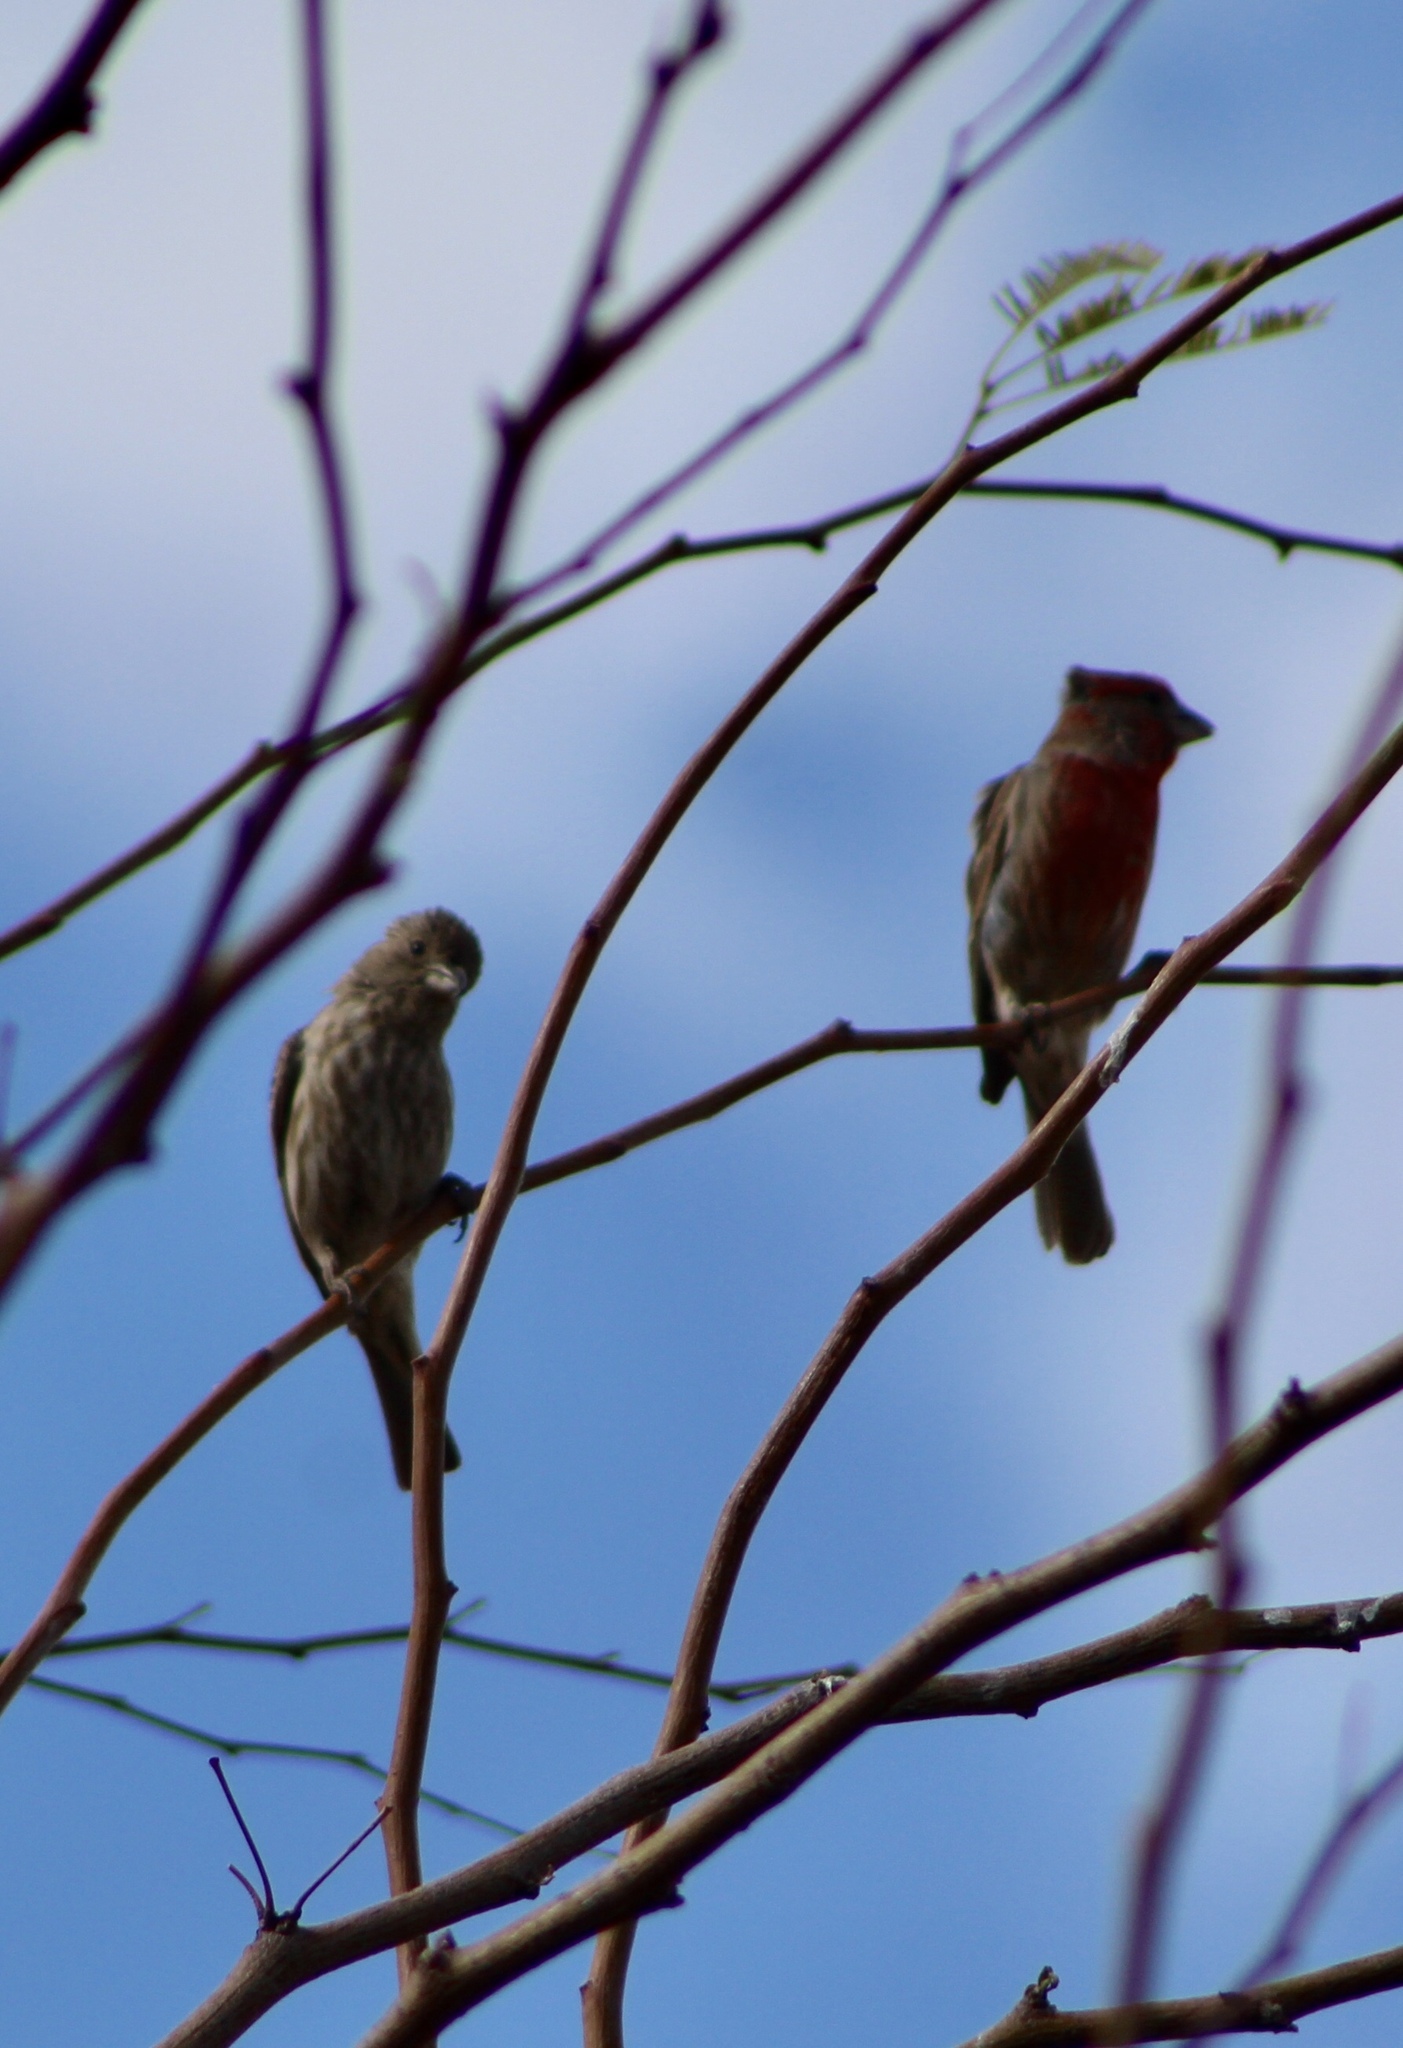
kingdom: Animalia
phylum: Chordata
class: Aves
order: Passeriformes
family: Fringillidae
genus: Haemorhous
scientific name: Haemorhous mexicanus
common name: House finch
